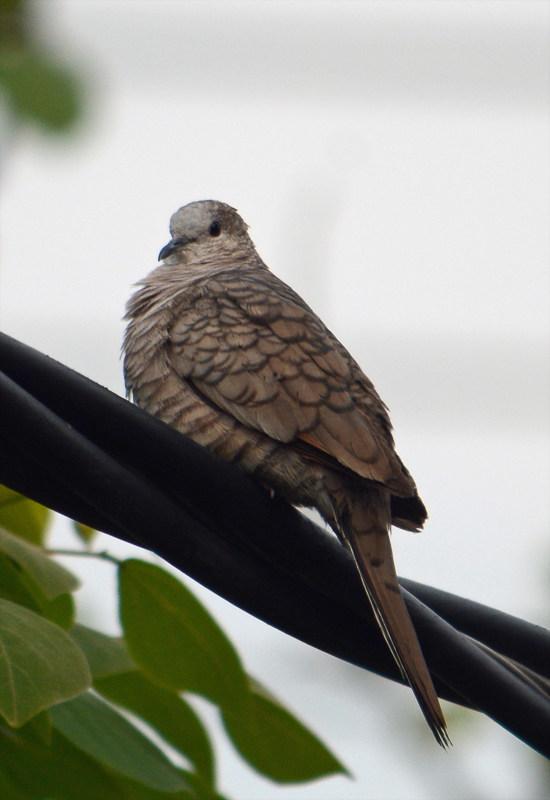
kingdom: Animalia
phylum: Chordata
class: Aves
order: Columbiformes
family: Columbidae
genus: Columbina
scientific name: Columbina inca
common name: Inca dove
